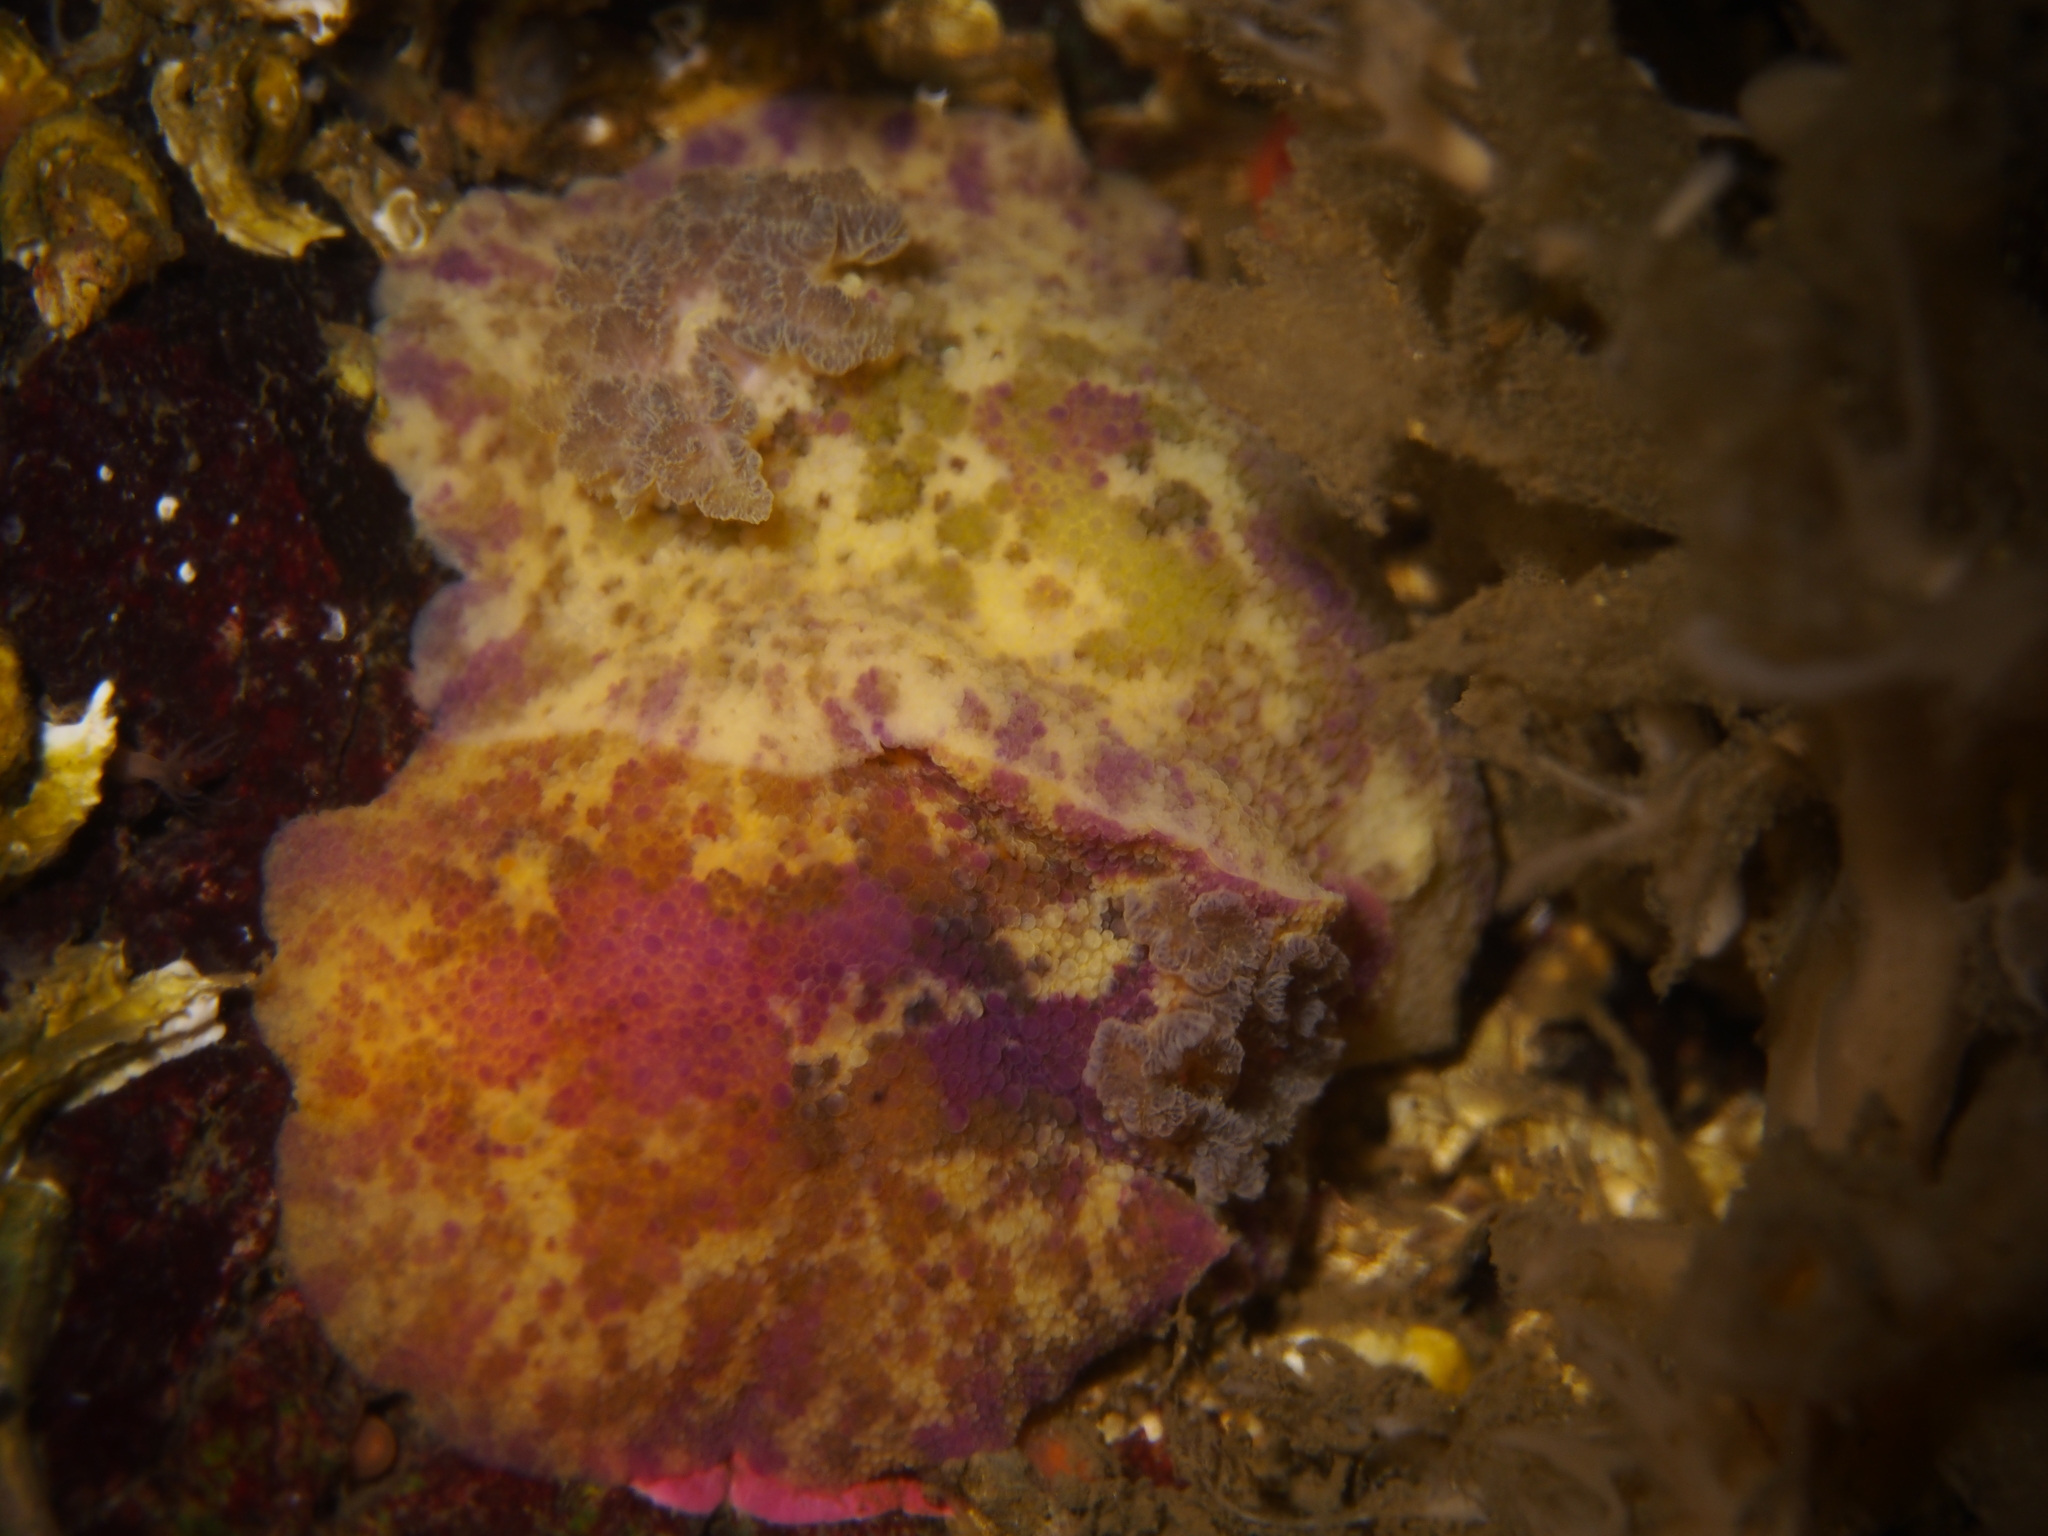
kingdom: Animalia
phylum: Mollusca
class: Gastropoda
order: Nudibranchia
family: Dorididae
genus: Doris
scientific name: Doris pseudoargus
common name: Sea lemon
